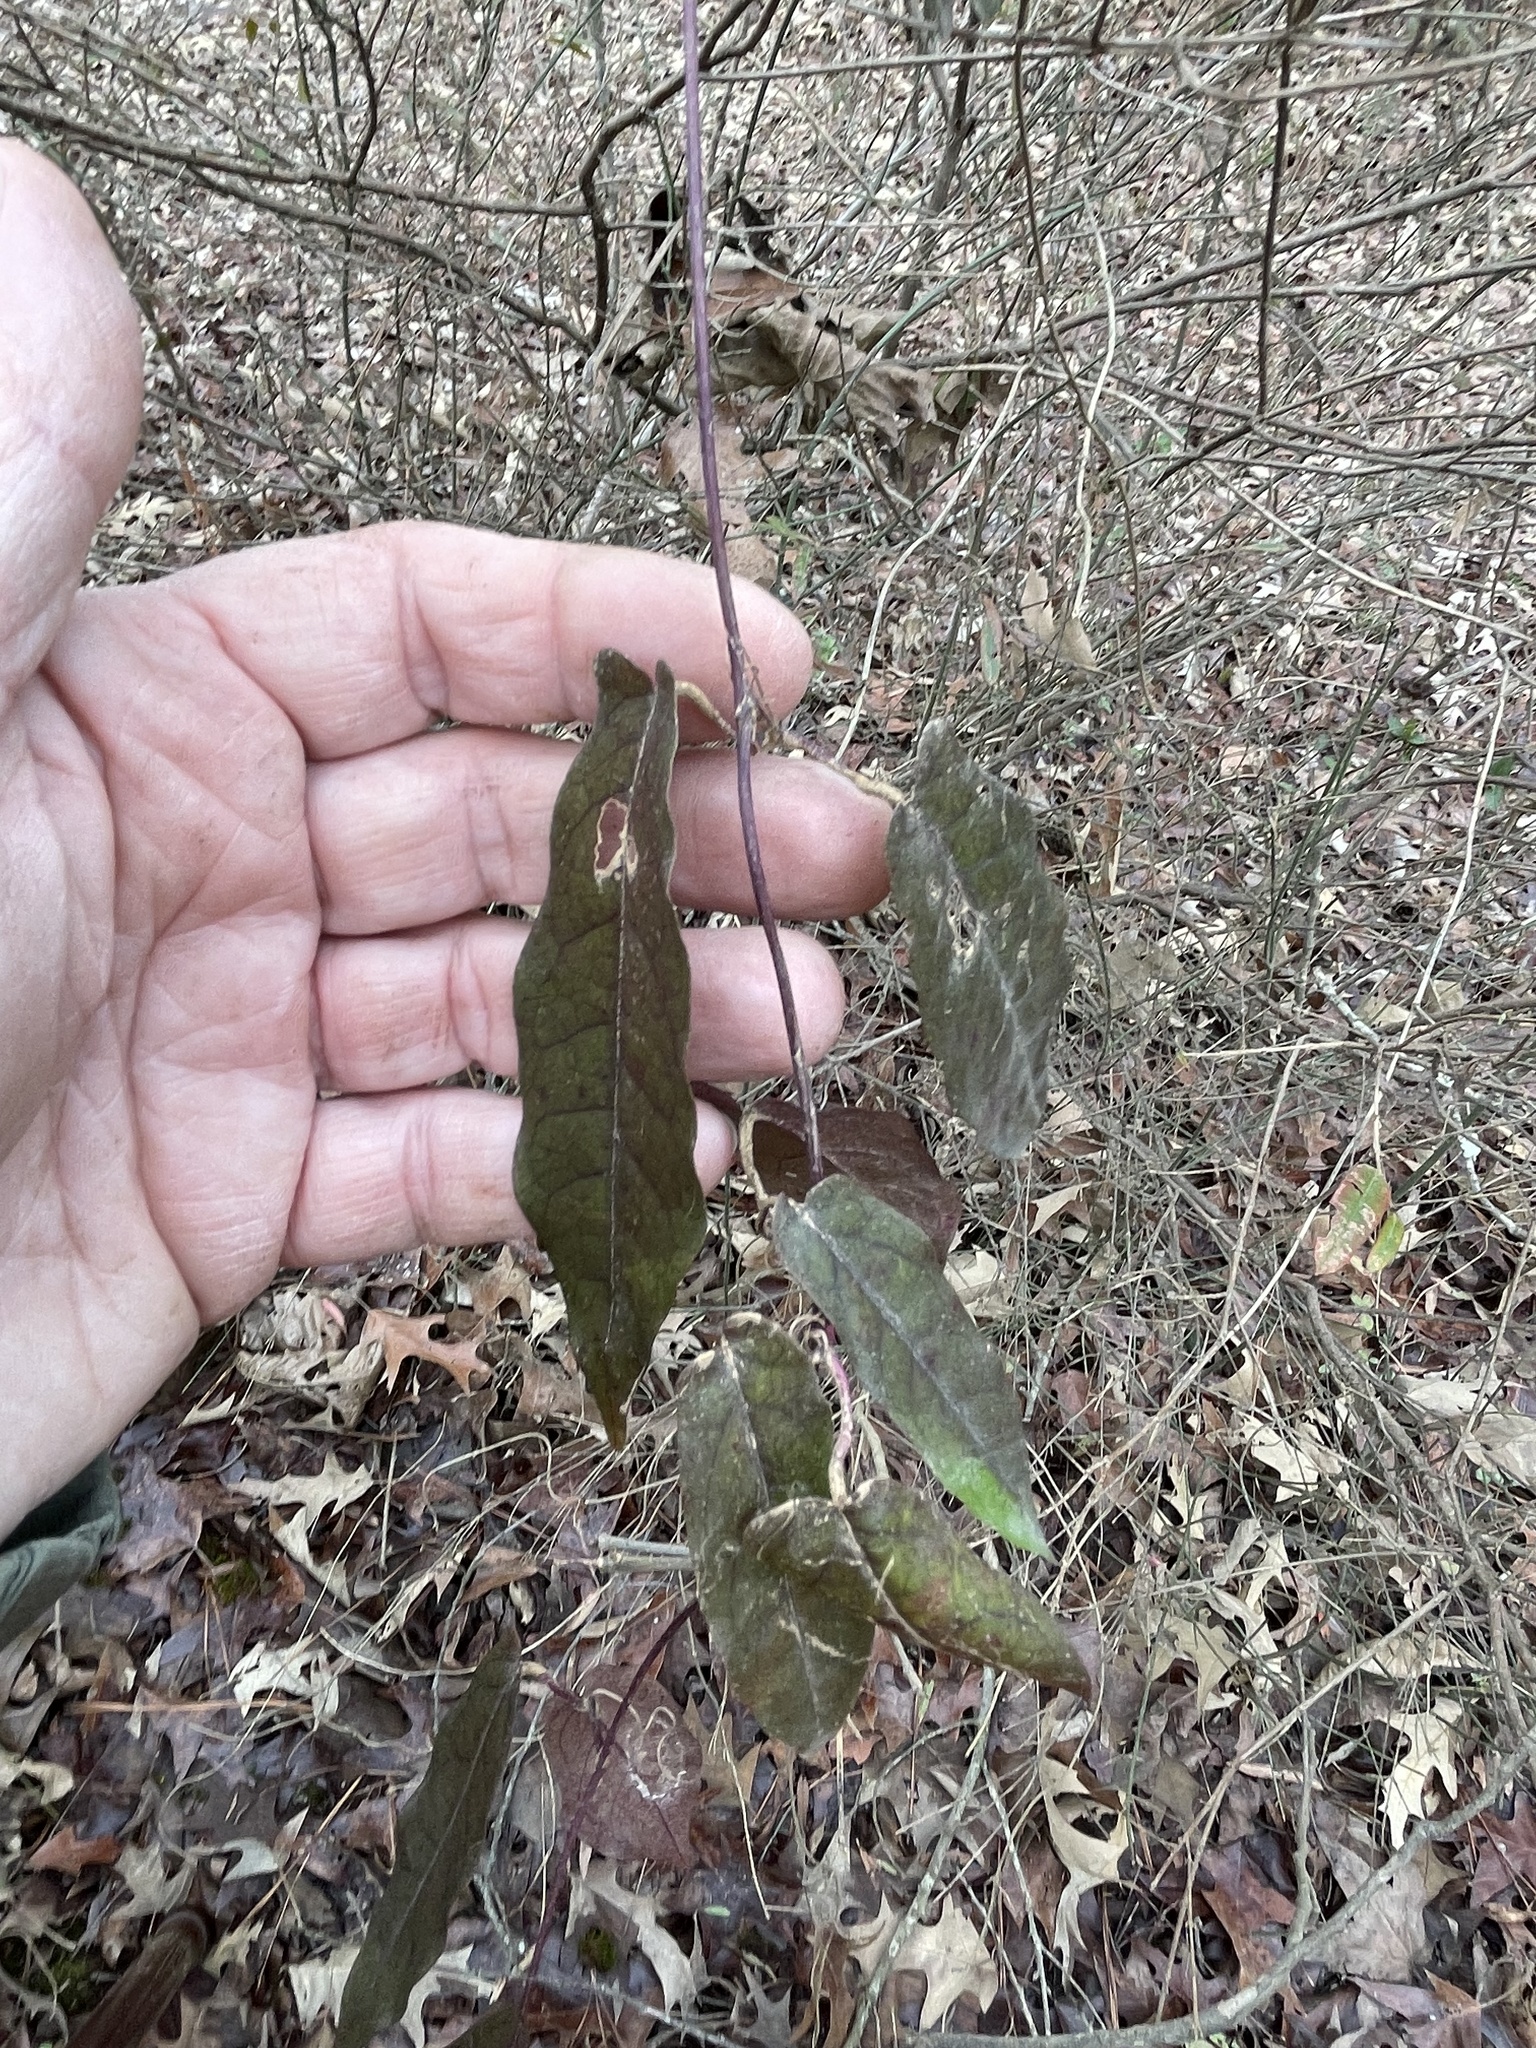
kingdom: Plantae
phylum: Tracheophyta
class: Magnoliopsida
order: Lamiales
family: Bignoniaceae
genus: Bignonia
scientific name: Bignonia capreolata
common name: Crossvine
